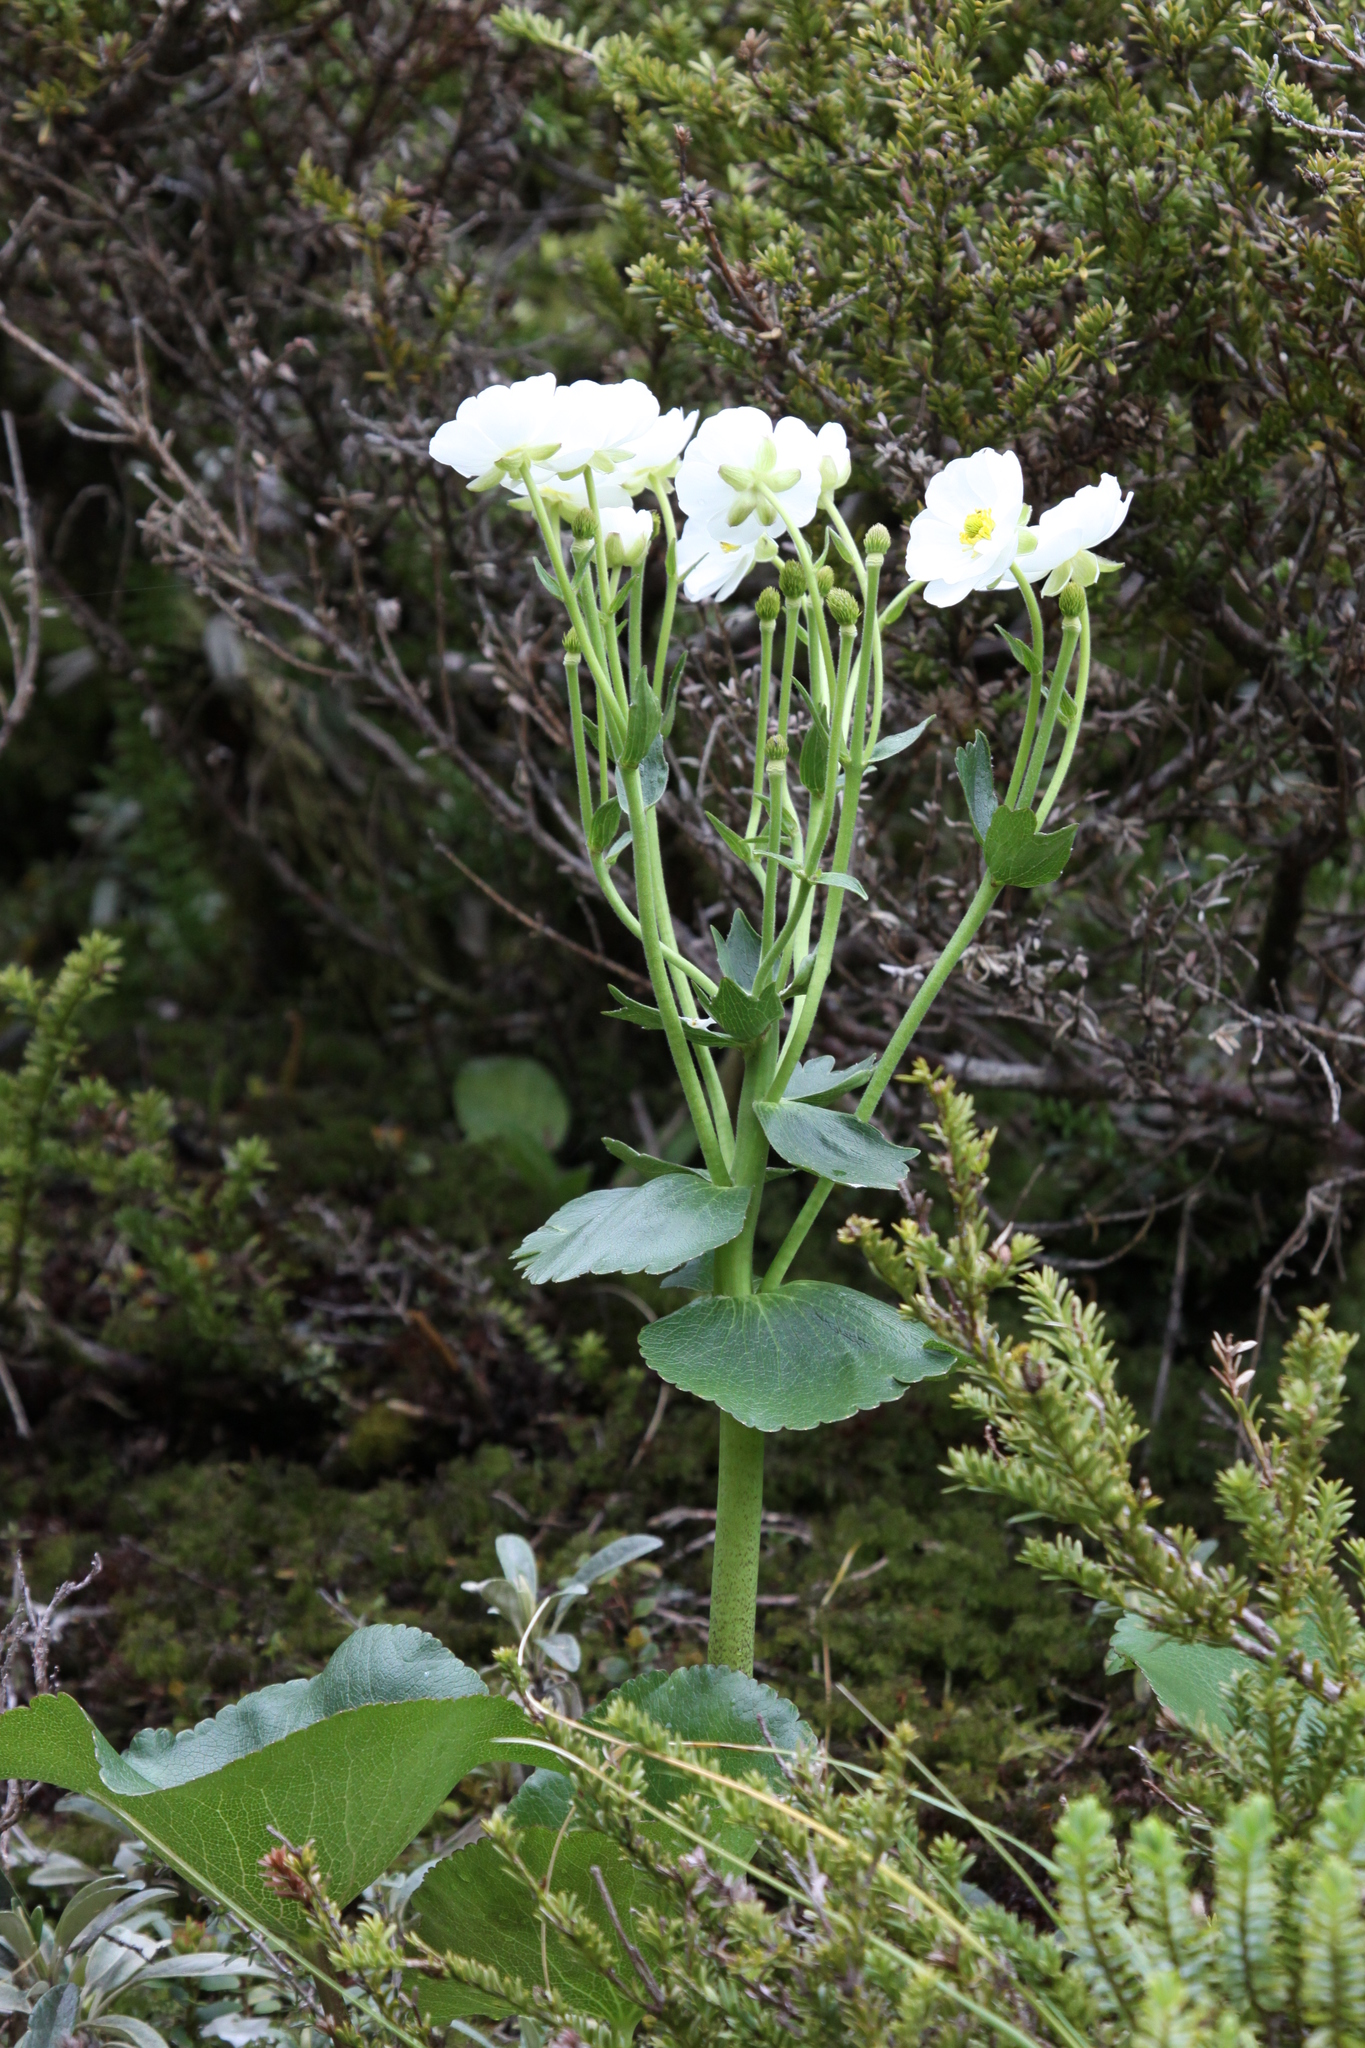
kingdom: Plantae
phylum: Tracheophyta
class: Magnoliopsida
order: Ranunculales
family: Ranunculaceae
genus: Ranunculus
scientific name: Ranunculus lyallii
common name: Mountain-lily
